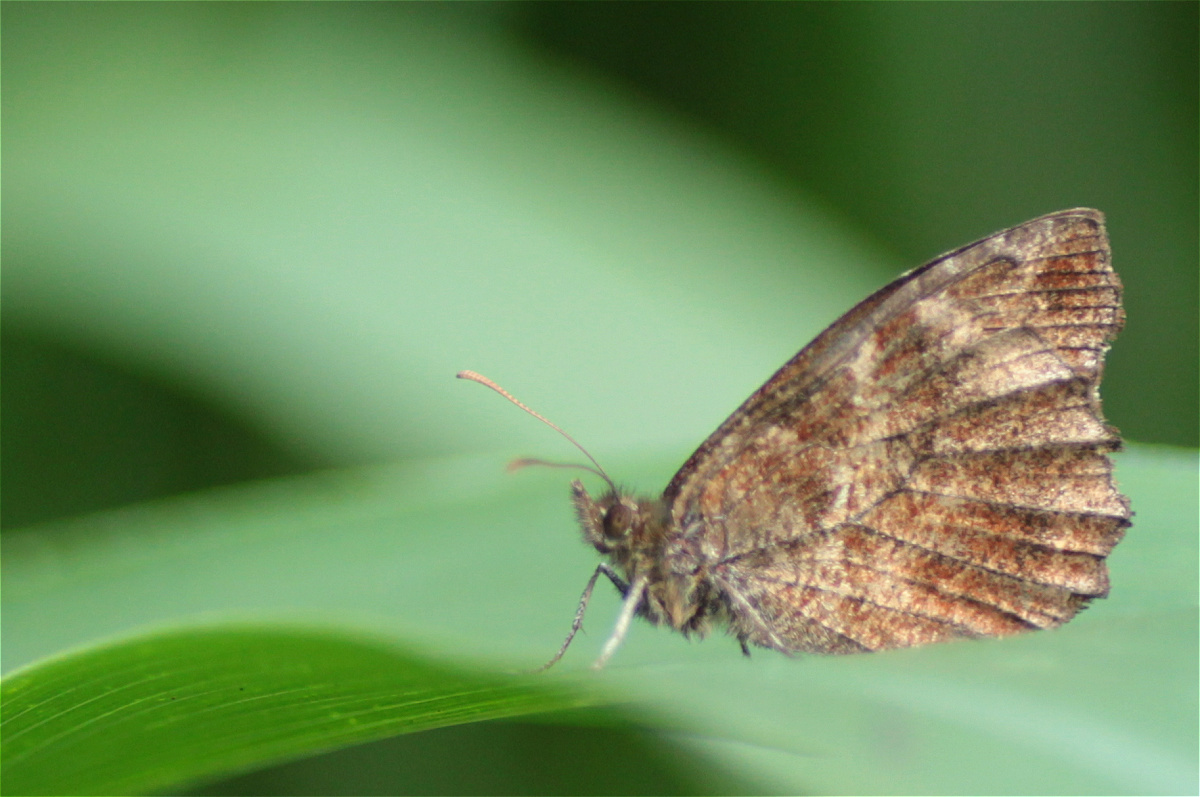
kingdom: Animalia
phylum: Arthropoda
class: Insecta
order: Lepidoptera
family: Nymphalidae
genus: Panyapedaliodes
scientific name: Panyapedaliodes drymaea
